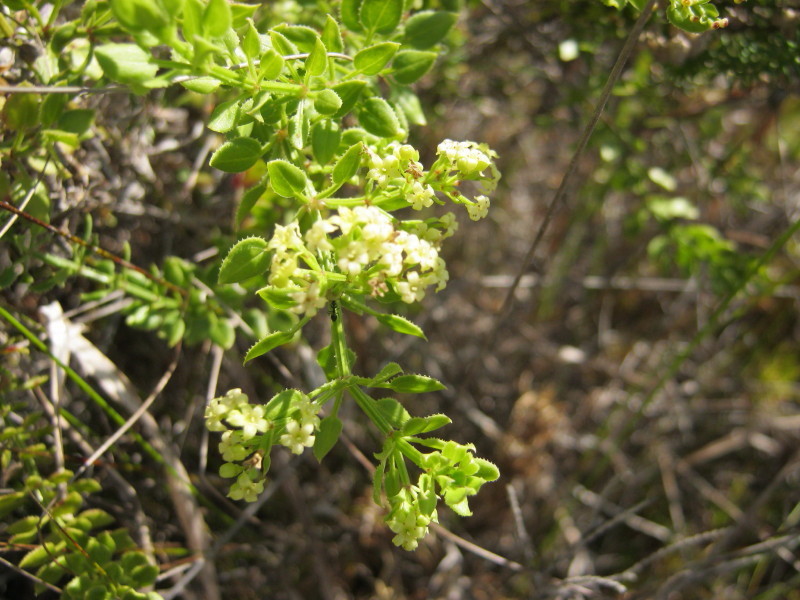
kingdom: Plantae
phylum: Tracheophyta
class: Magnoliopsida
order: Gentianales
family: Rubiaceae
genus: Rubia
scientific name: Rubia petiolaris
